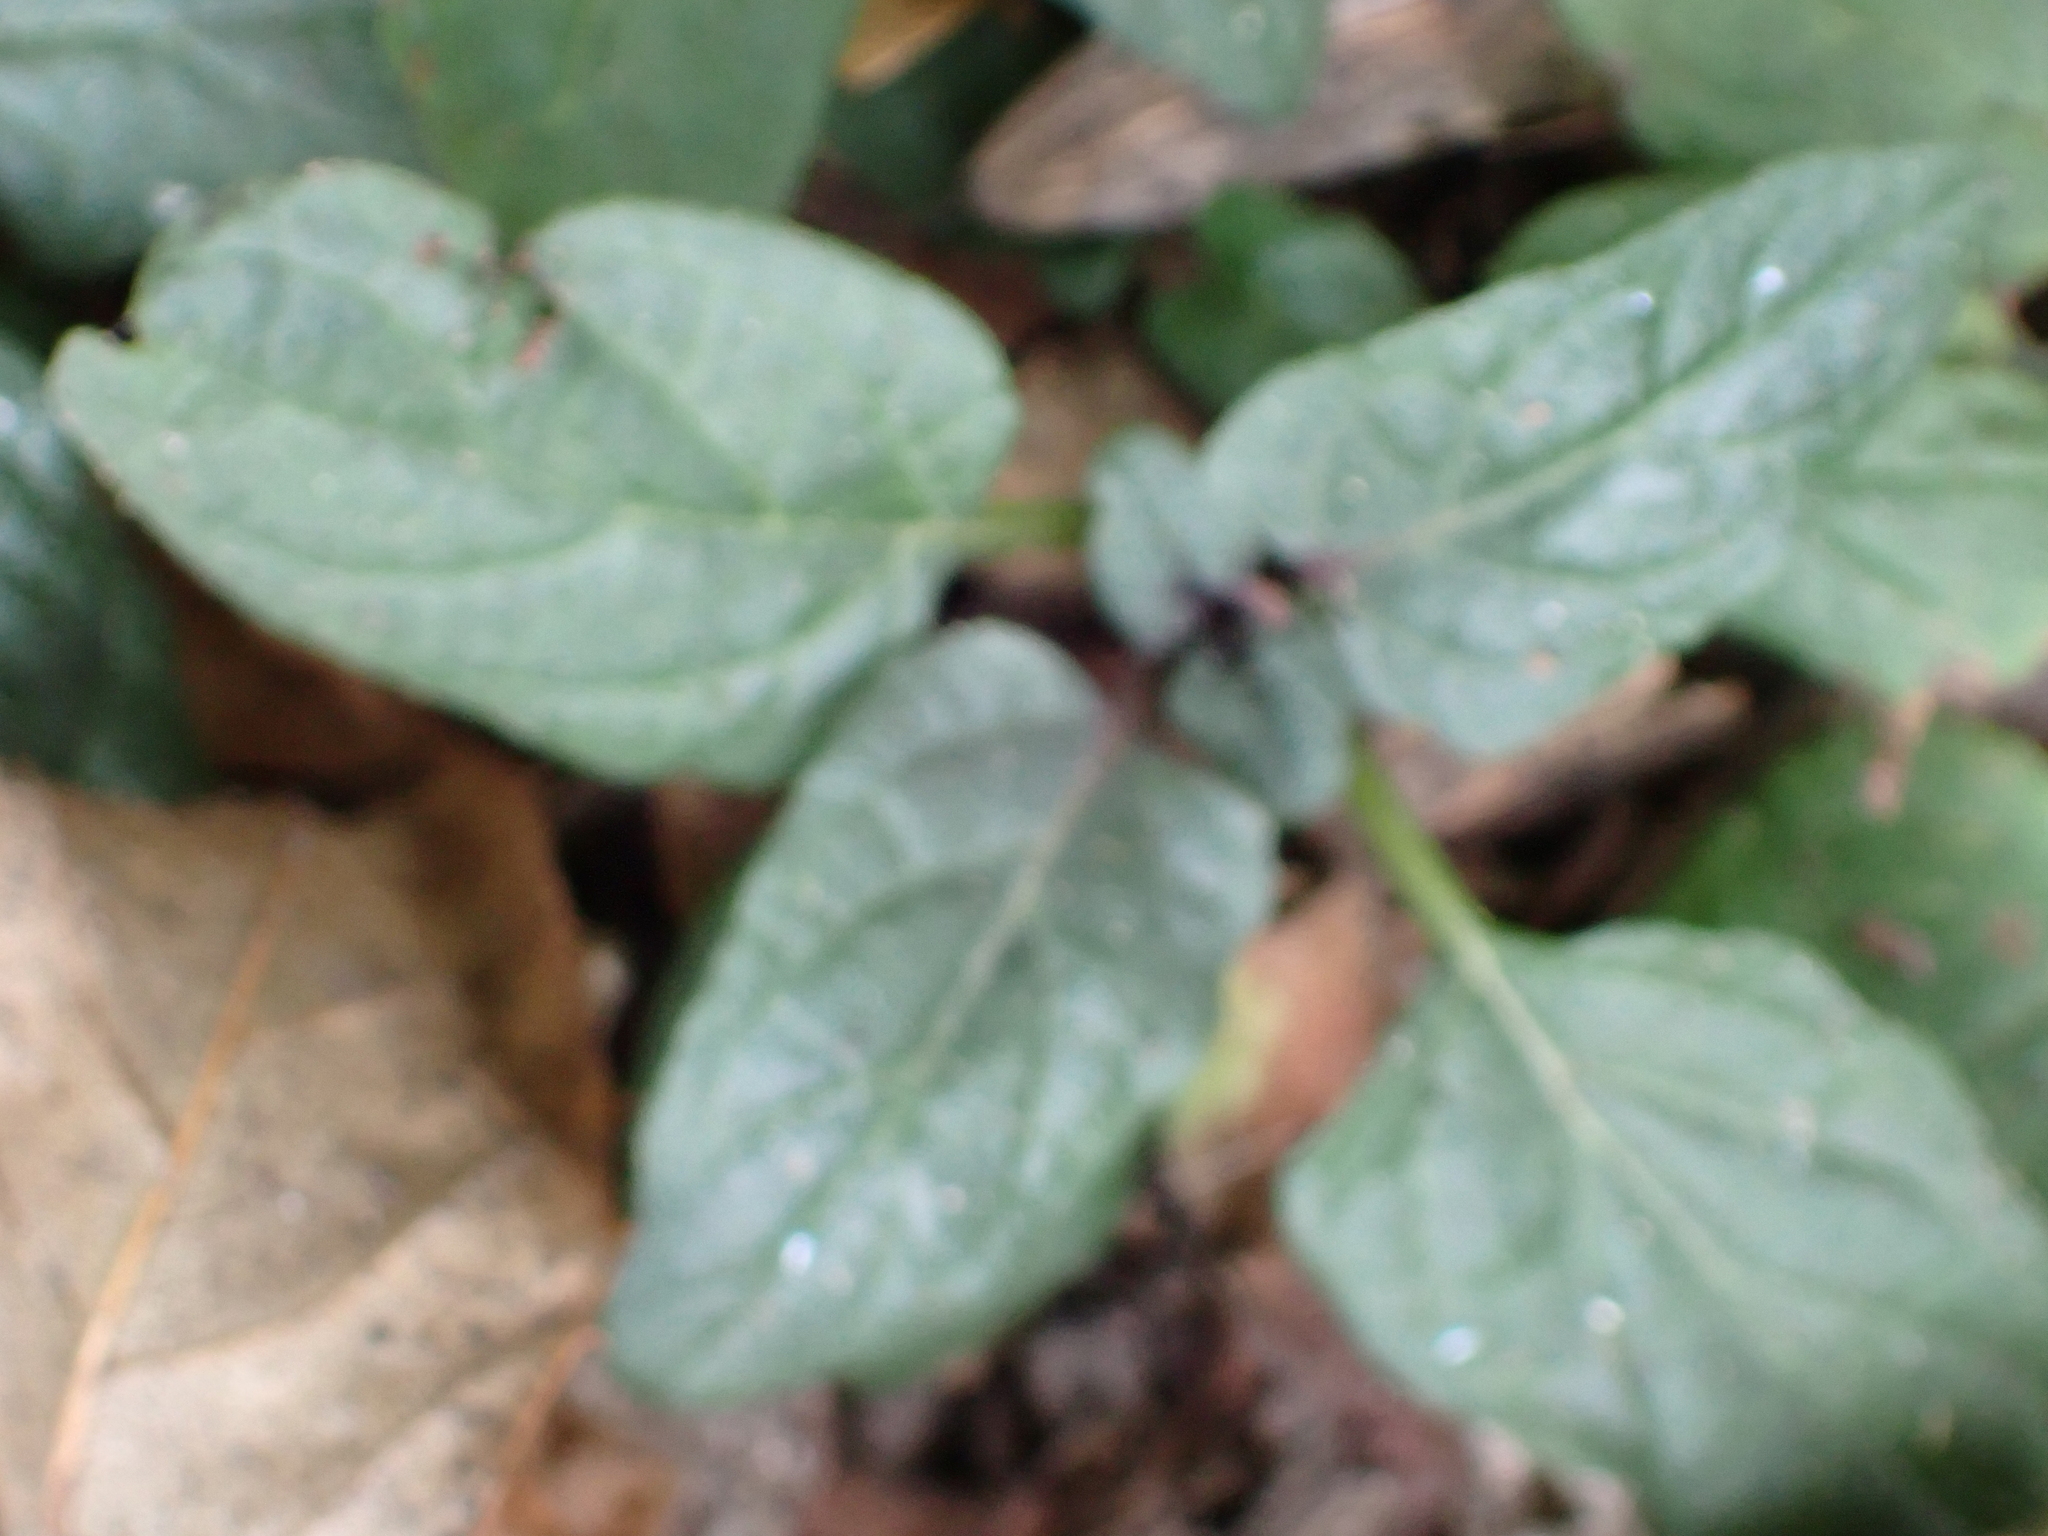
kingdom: Plantae
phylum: Tracheophyta
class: Magnoliopsida
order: Lamiales
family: Lamiaceae
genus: Prunella
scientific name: Prunella vulgaris
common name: Heal-all
